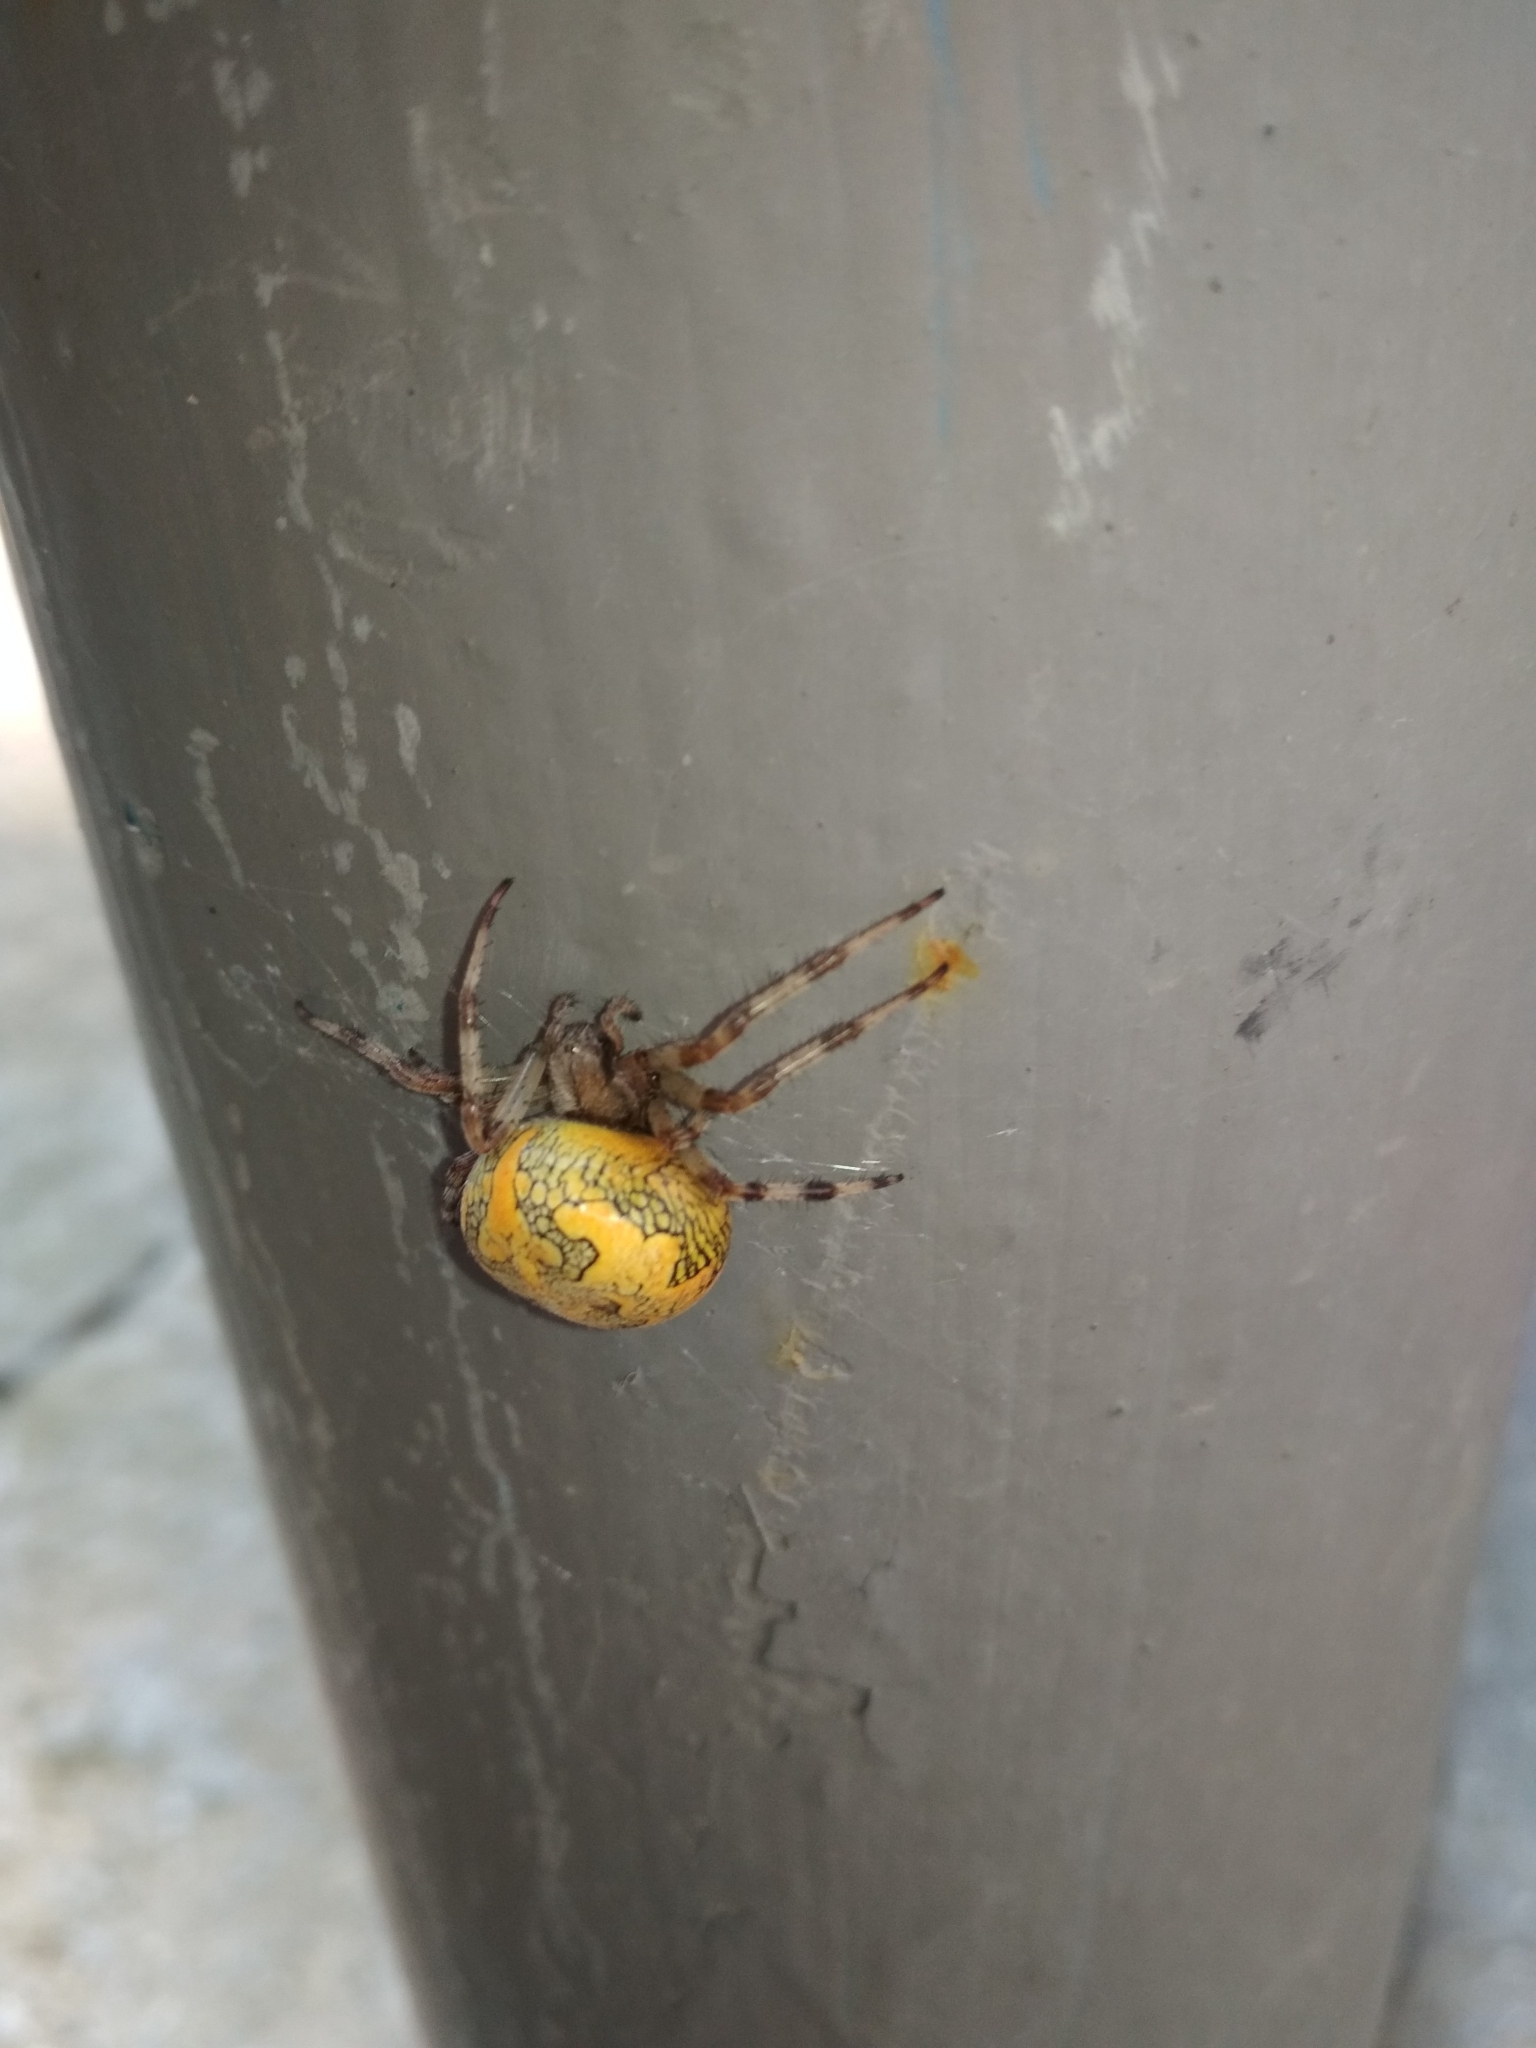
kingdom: Animalia
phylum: Arthropoda
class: Arachnida
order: Araneae
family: Araneidae
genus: Araneus
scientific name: Araneus marmoreus
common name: Marbled orbweaver
